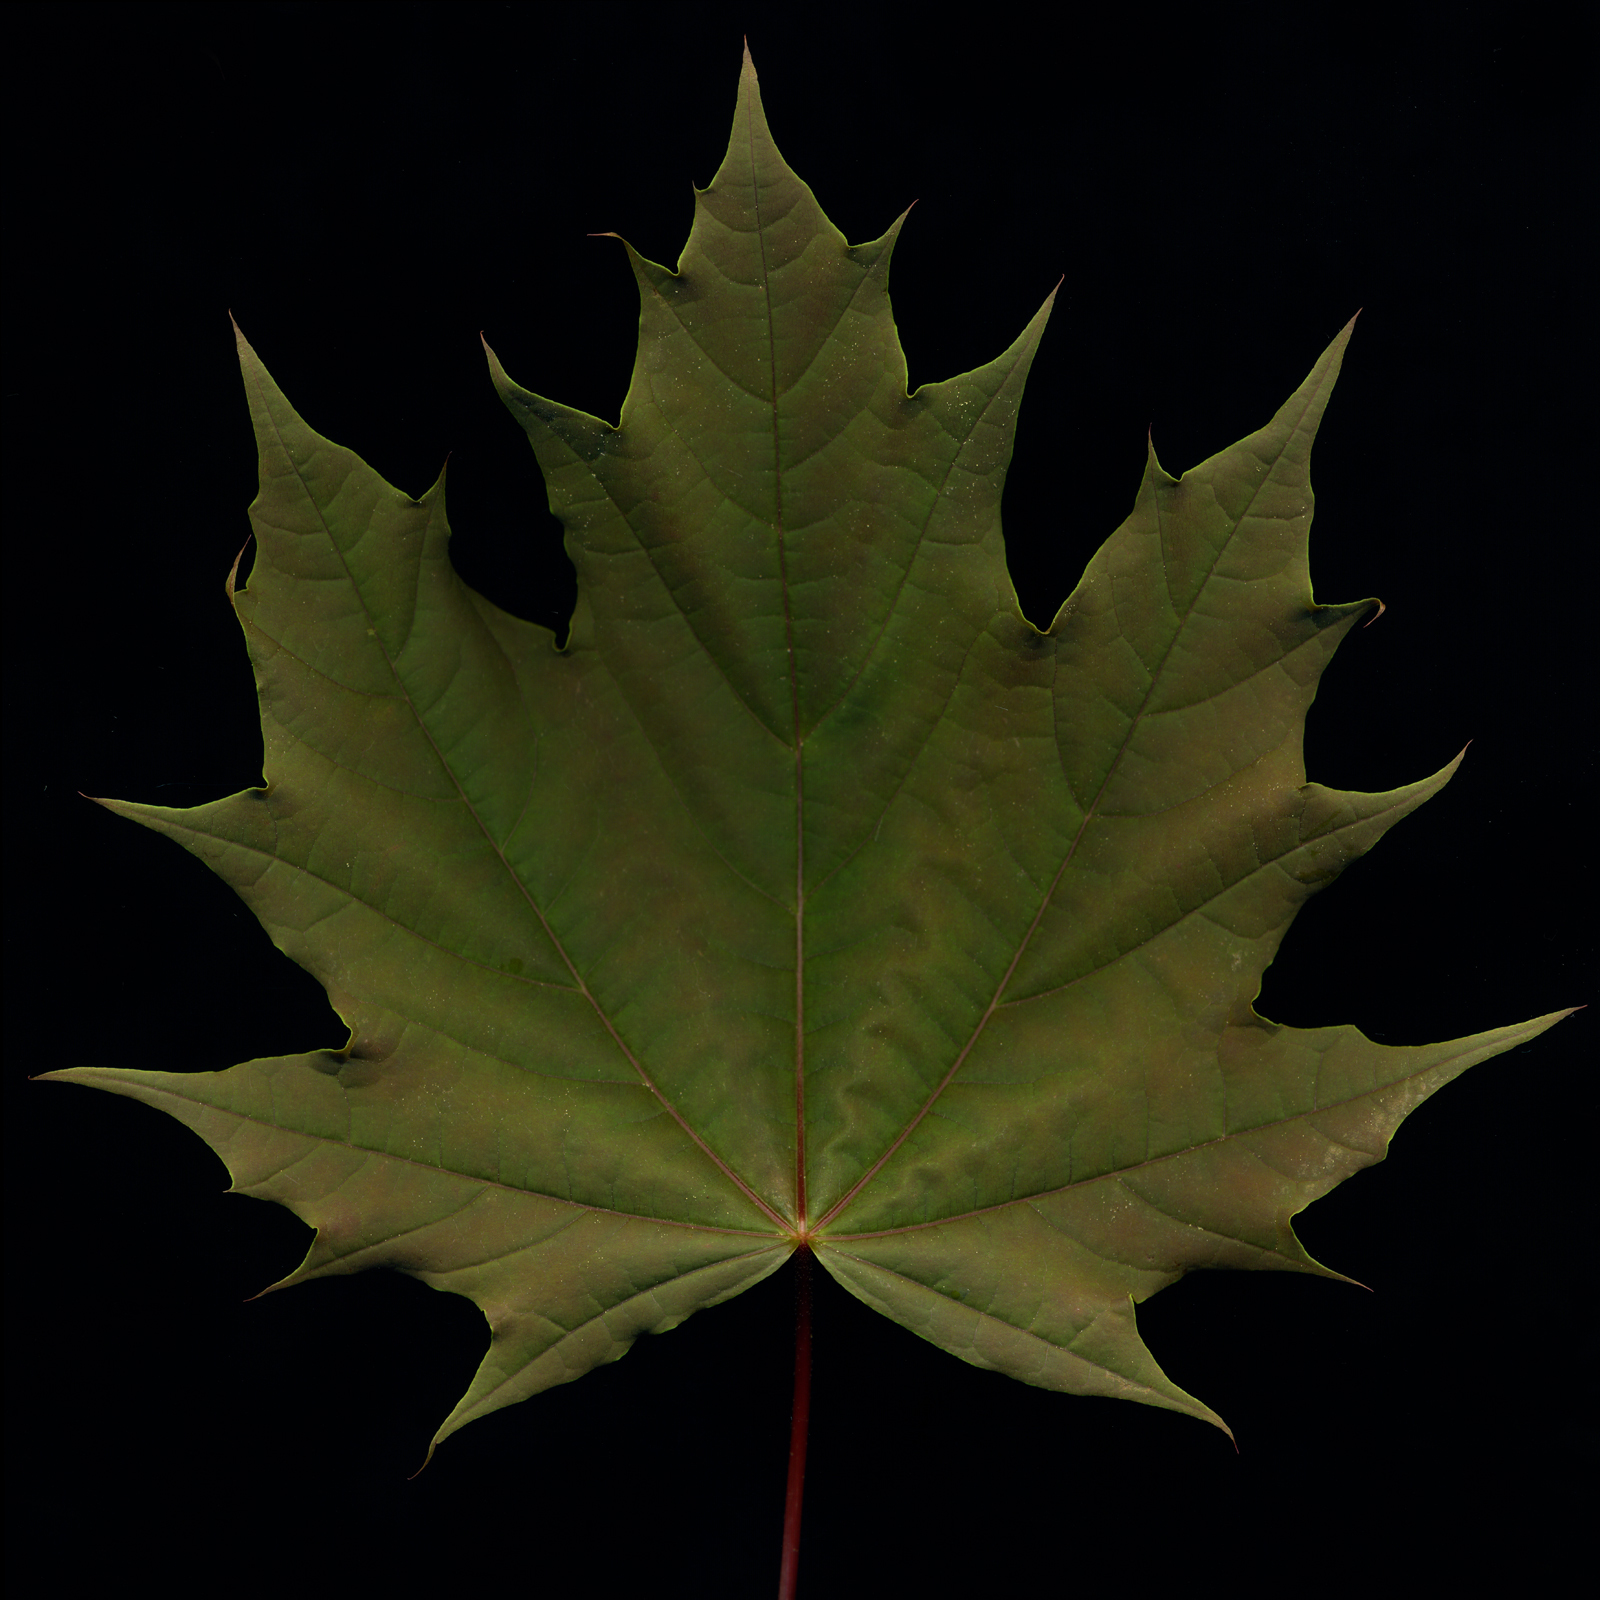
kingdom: Plantae
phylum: Tracheophyta
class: Magnoliopsida
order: Sapindales
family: Sapindaceae
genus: Acer
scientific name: Acer platanoides
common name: Norway maple
